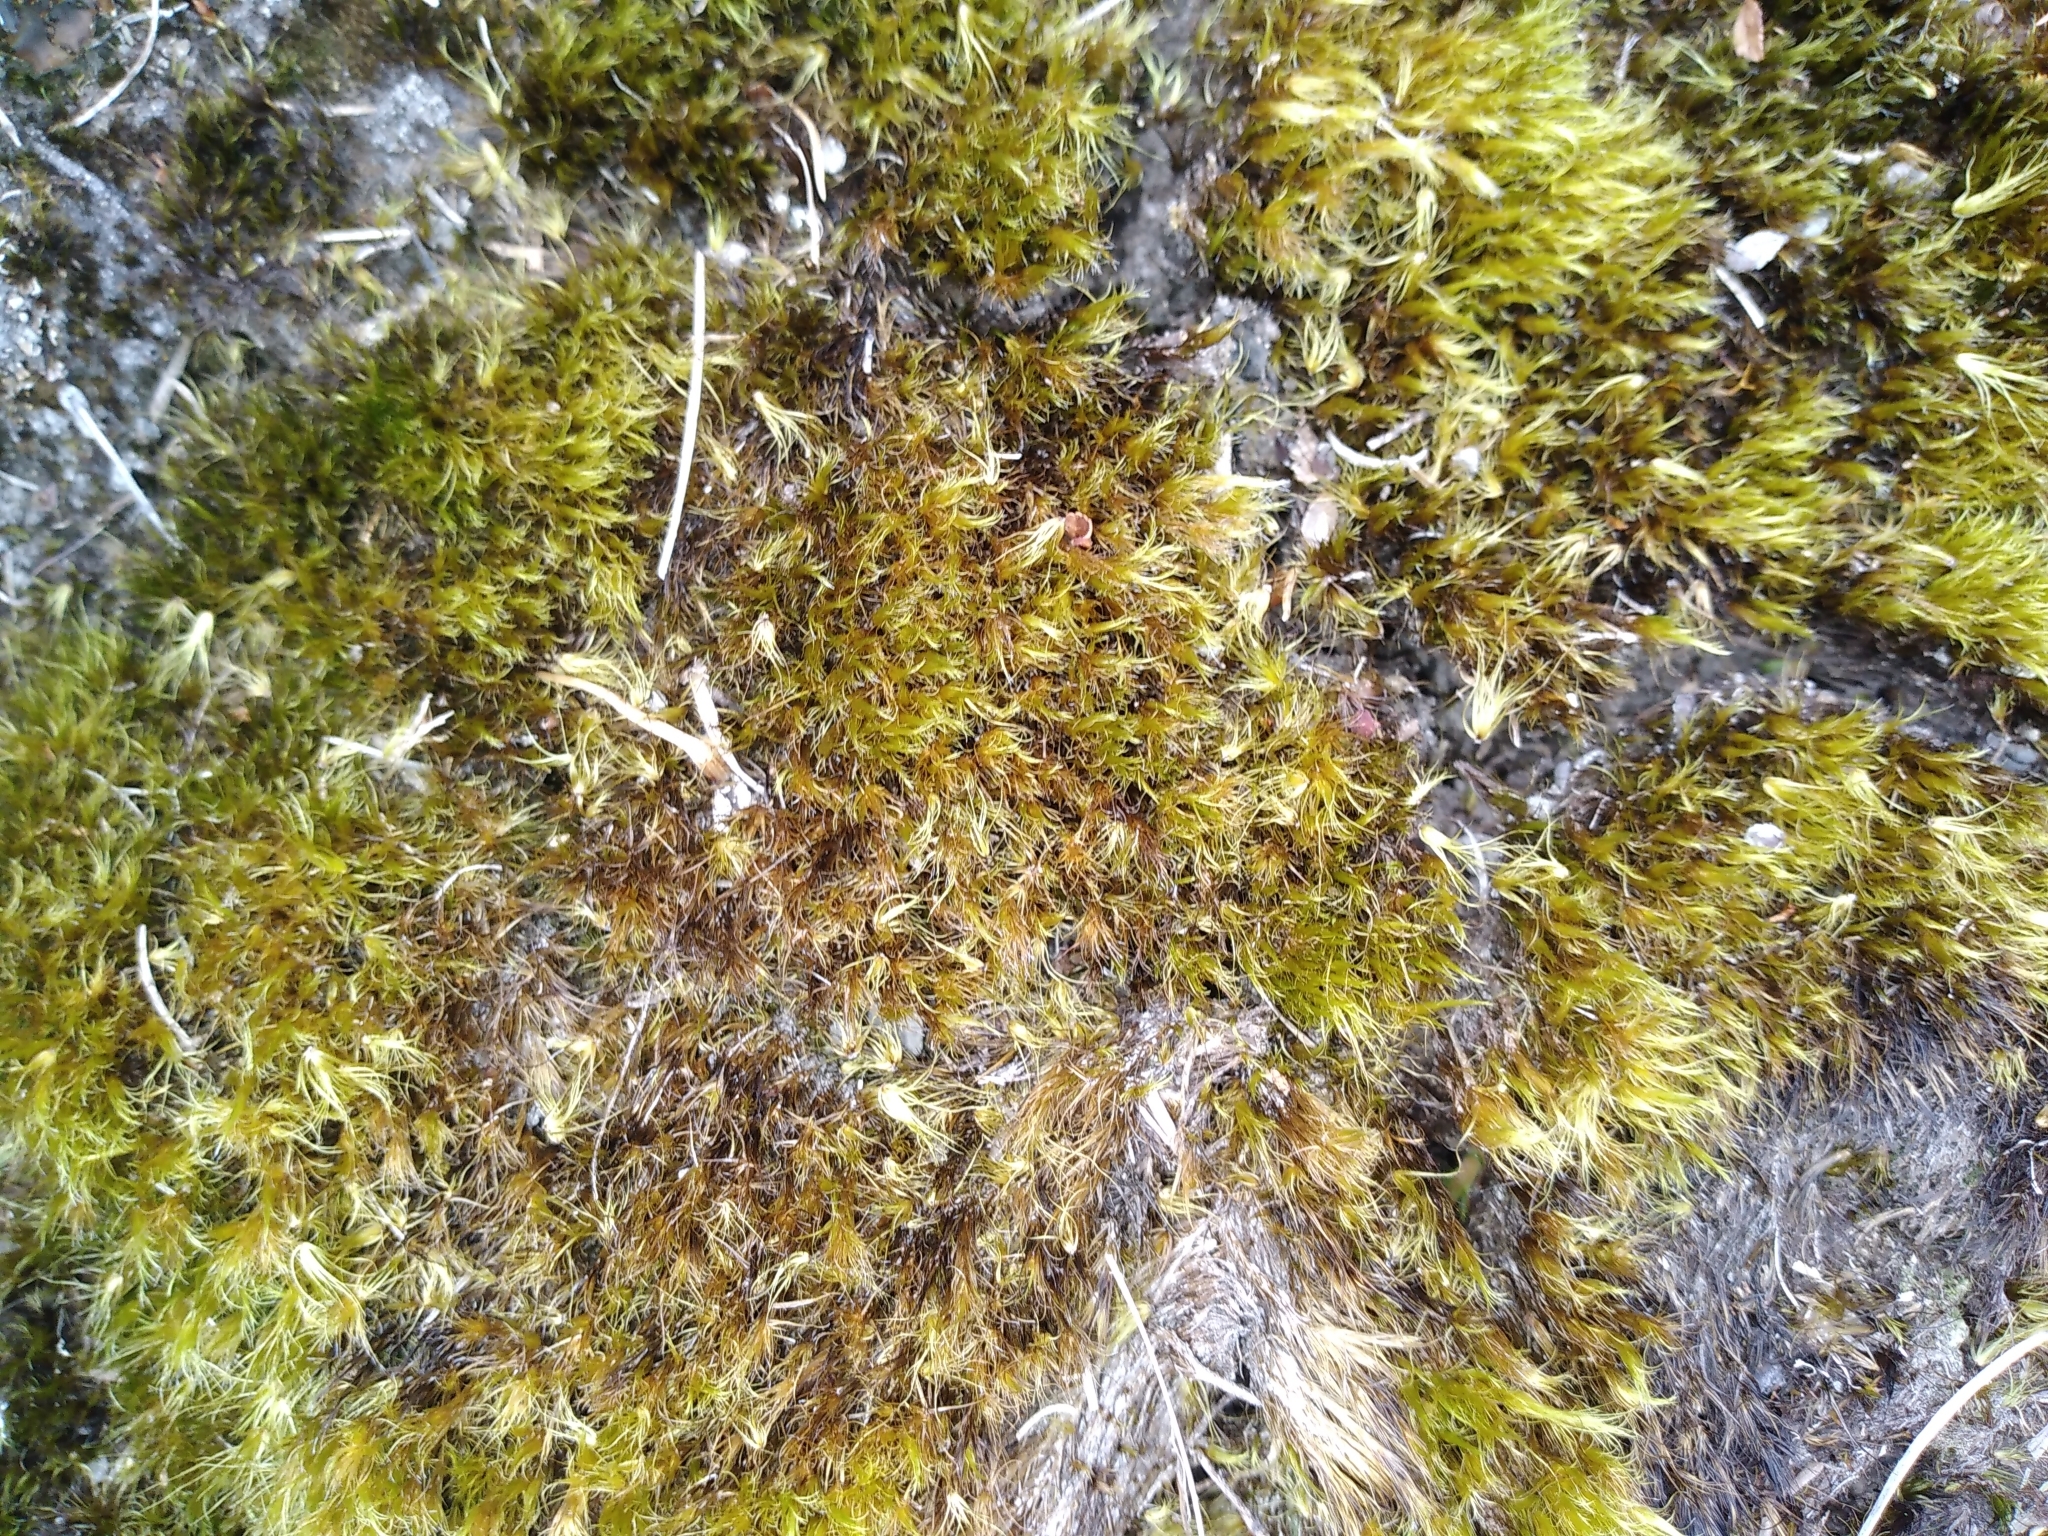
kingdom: Plantae
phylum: Bryophyta
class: Bryopsida
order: Dicranales
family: Leucobryaceae
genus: Campylopus
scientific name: Campylopus clavatus
